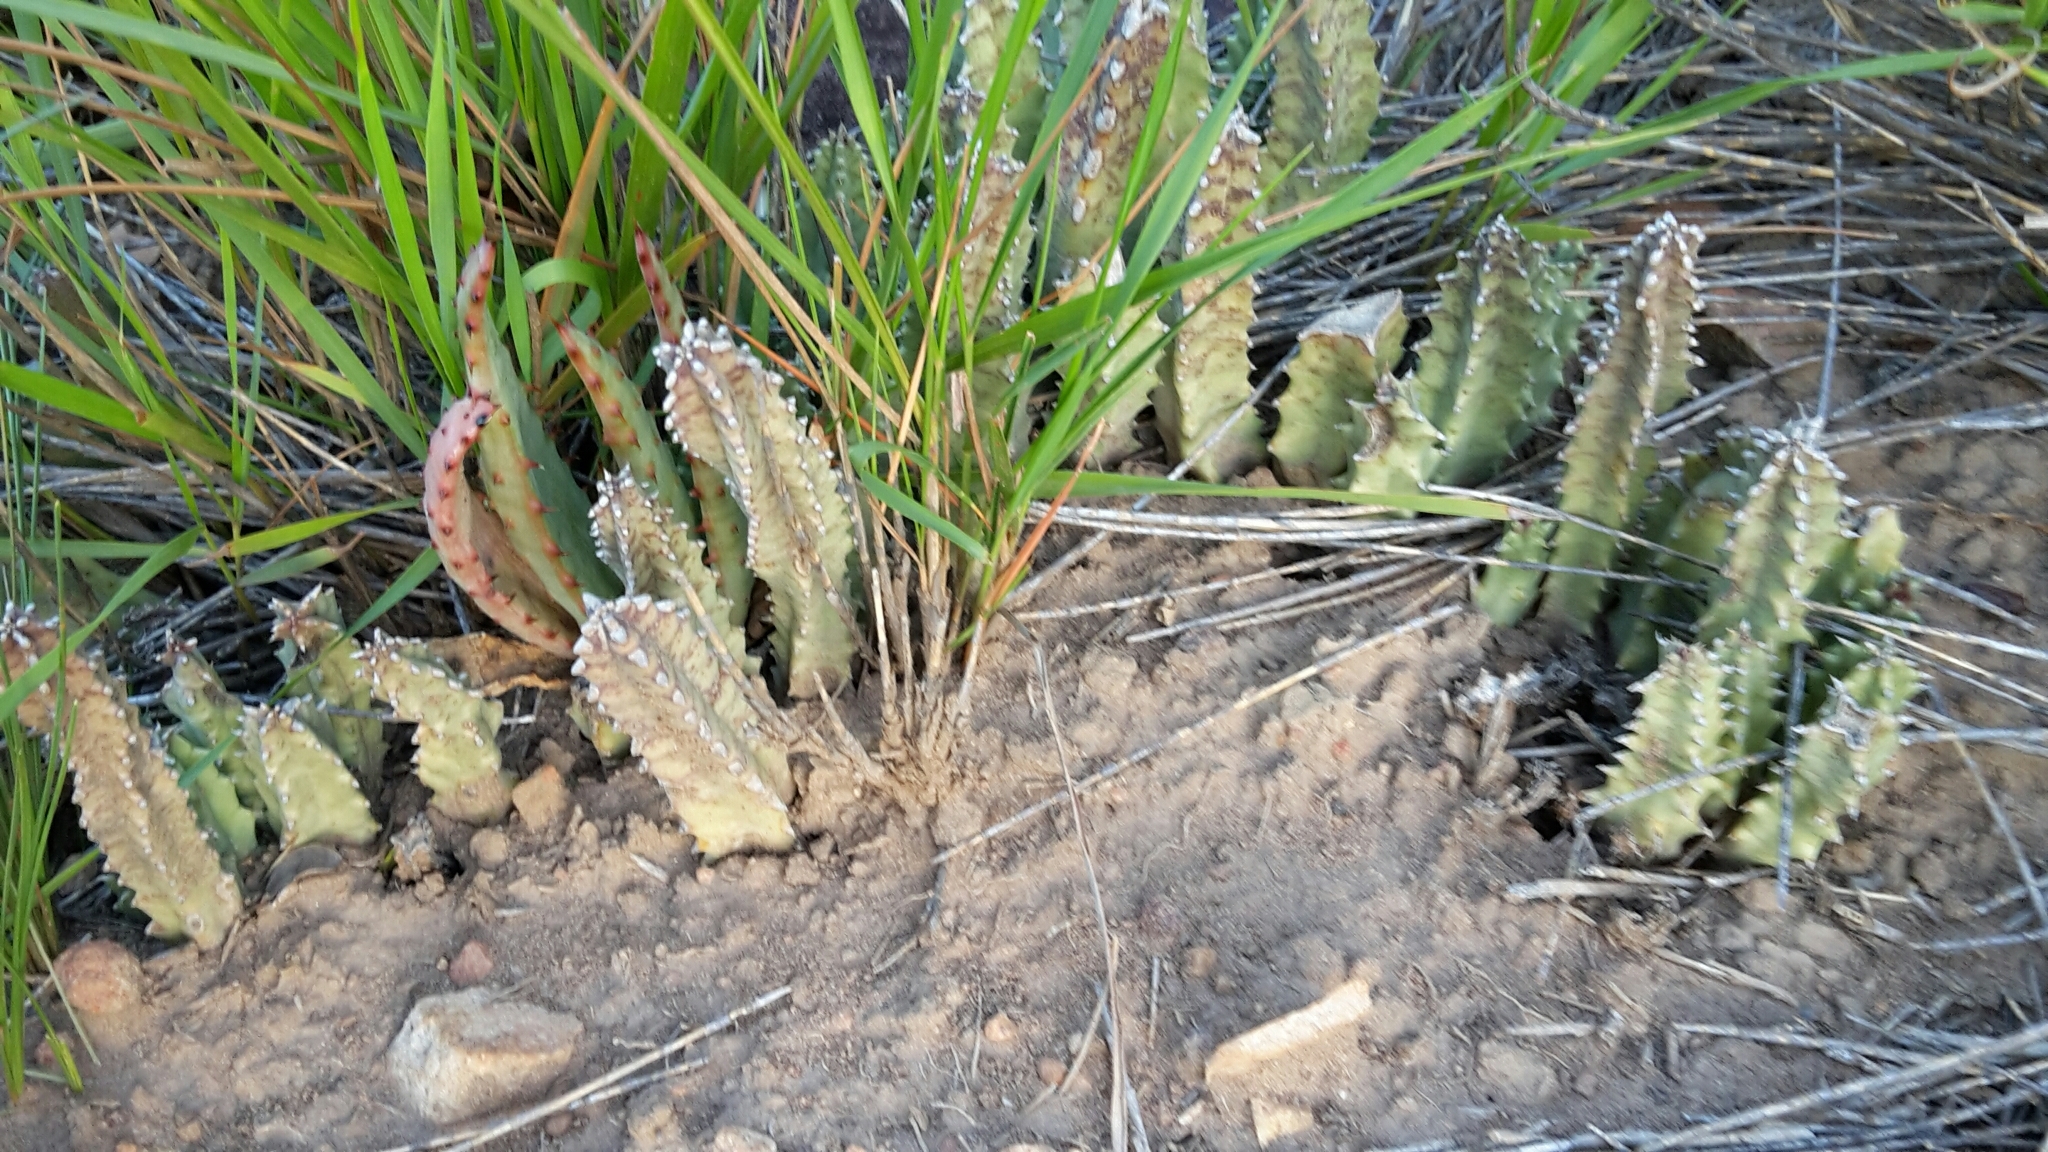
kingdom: Plantae
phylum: Tracheophyta
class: Magnoliopsida
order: Gentianales
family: Apocynaceae
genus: Ceropegia
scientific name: Ceropegia thuretii
